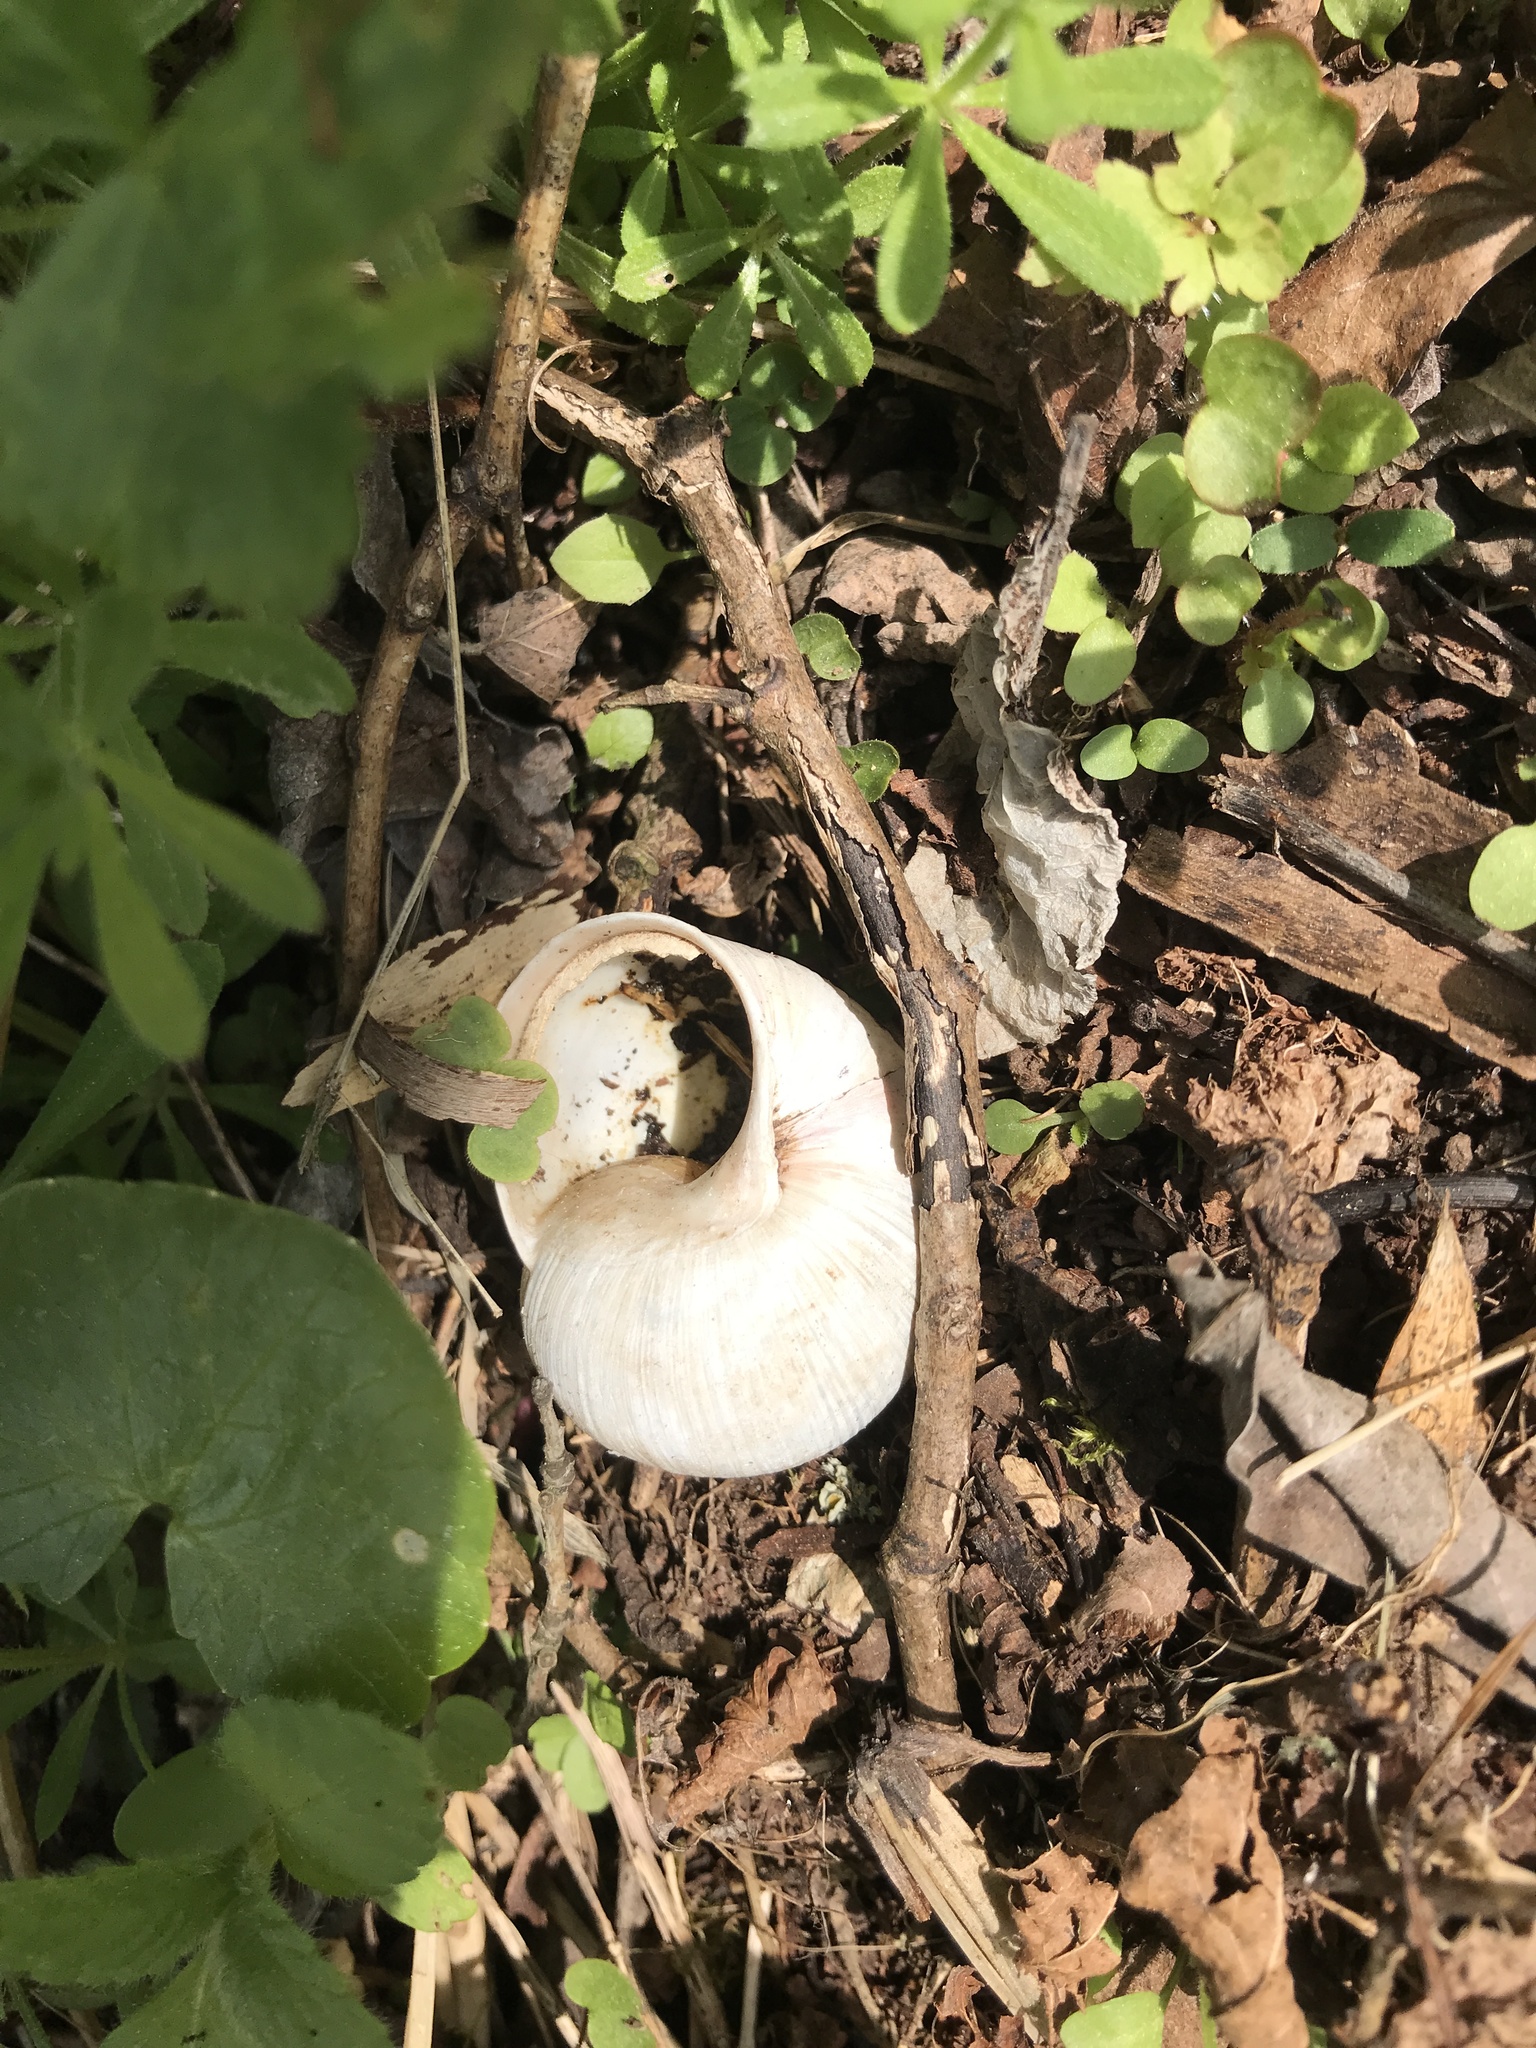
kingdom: Animalia
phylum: Mollusca
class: Gastropoda
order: Stylommatophora
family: Helicidae
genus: Helix
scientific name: Helix pomatia
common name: Roman snail
